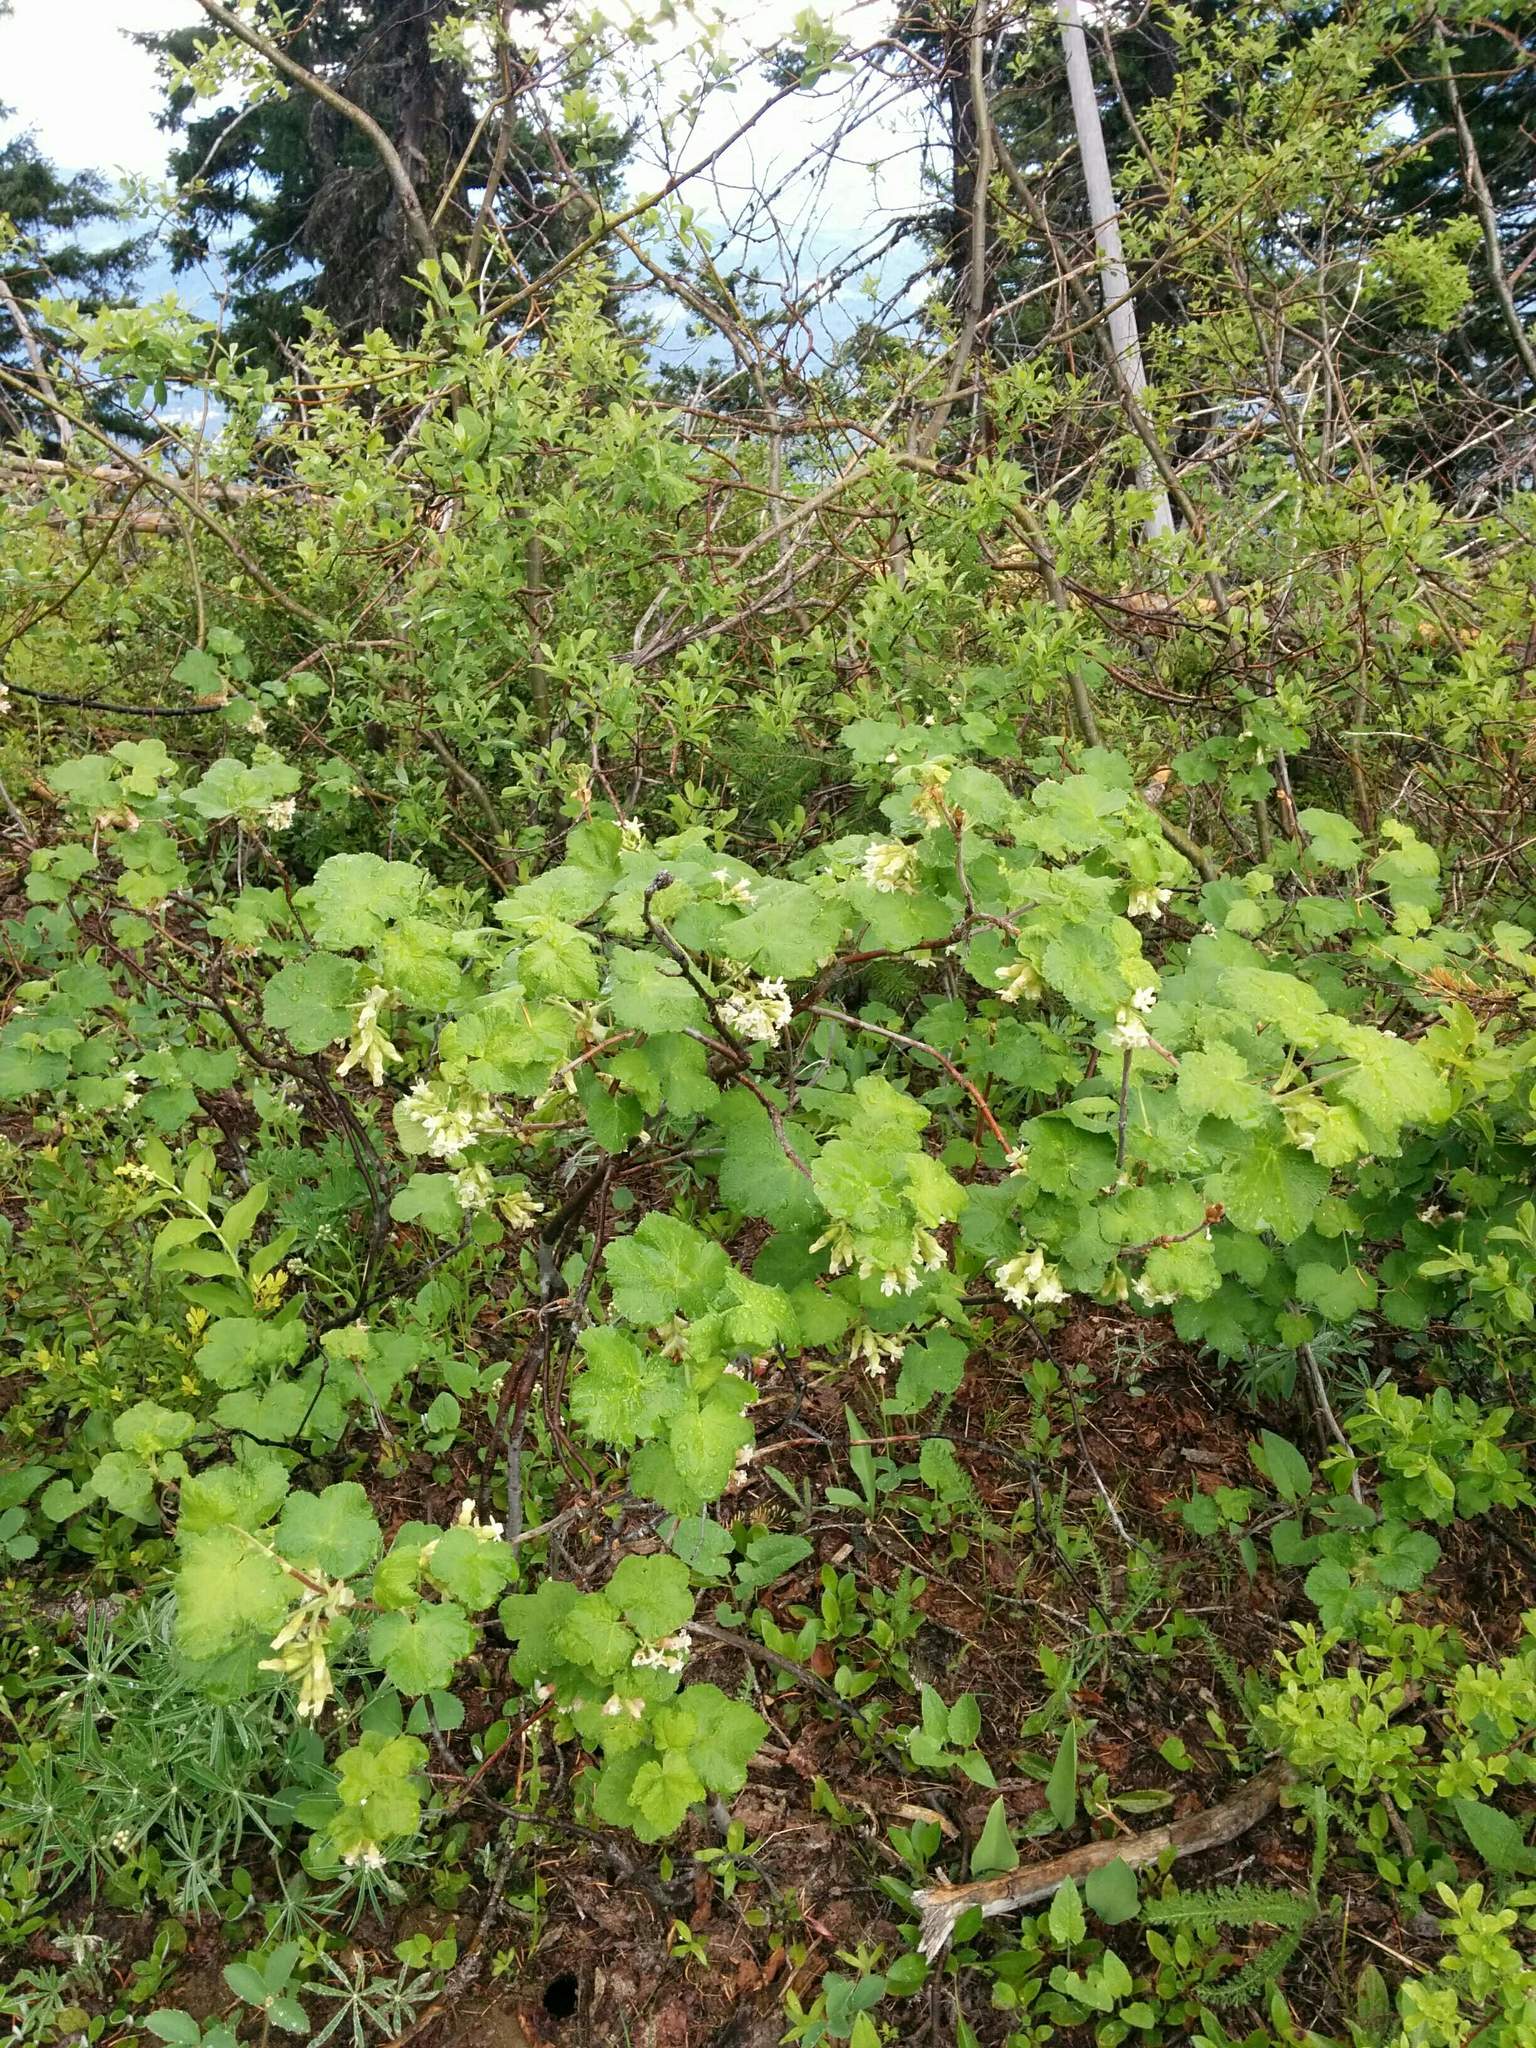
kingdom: Plantae
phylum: Tracheophyta
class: Magnoliopsida
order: Saxifragales
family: Grossulariaceae
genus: Ribes
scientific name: Ribes viscosissimum
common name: Sticky currant
